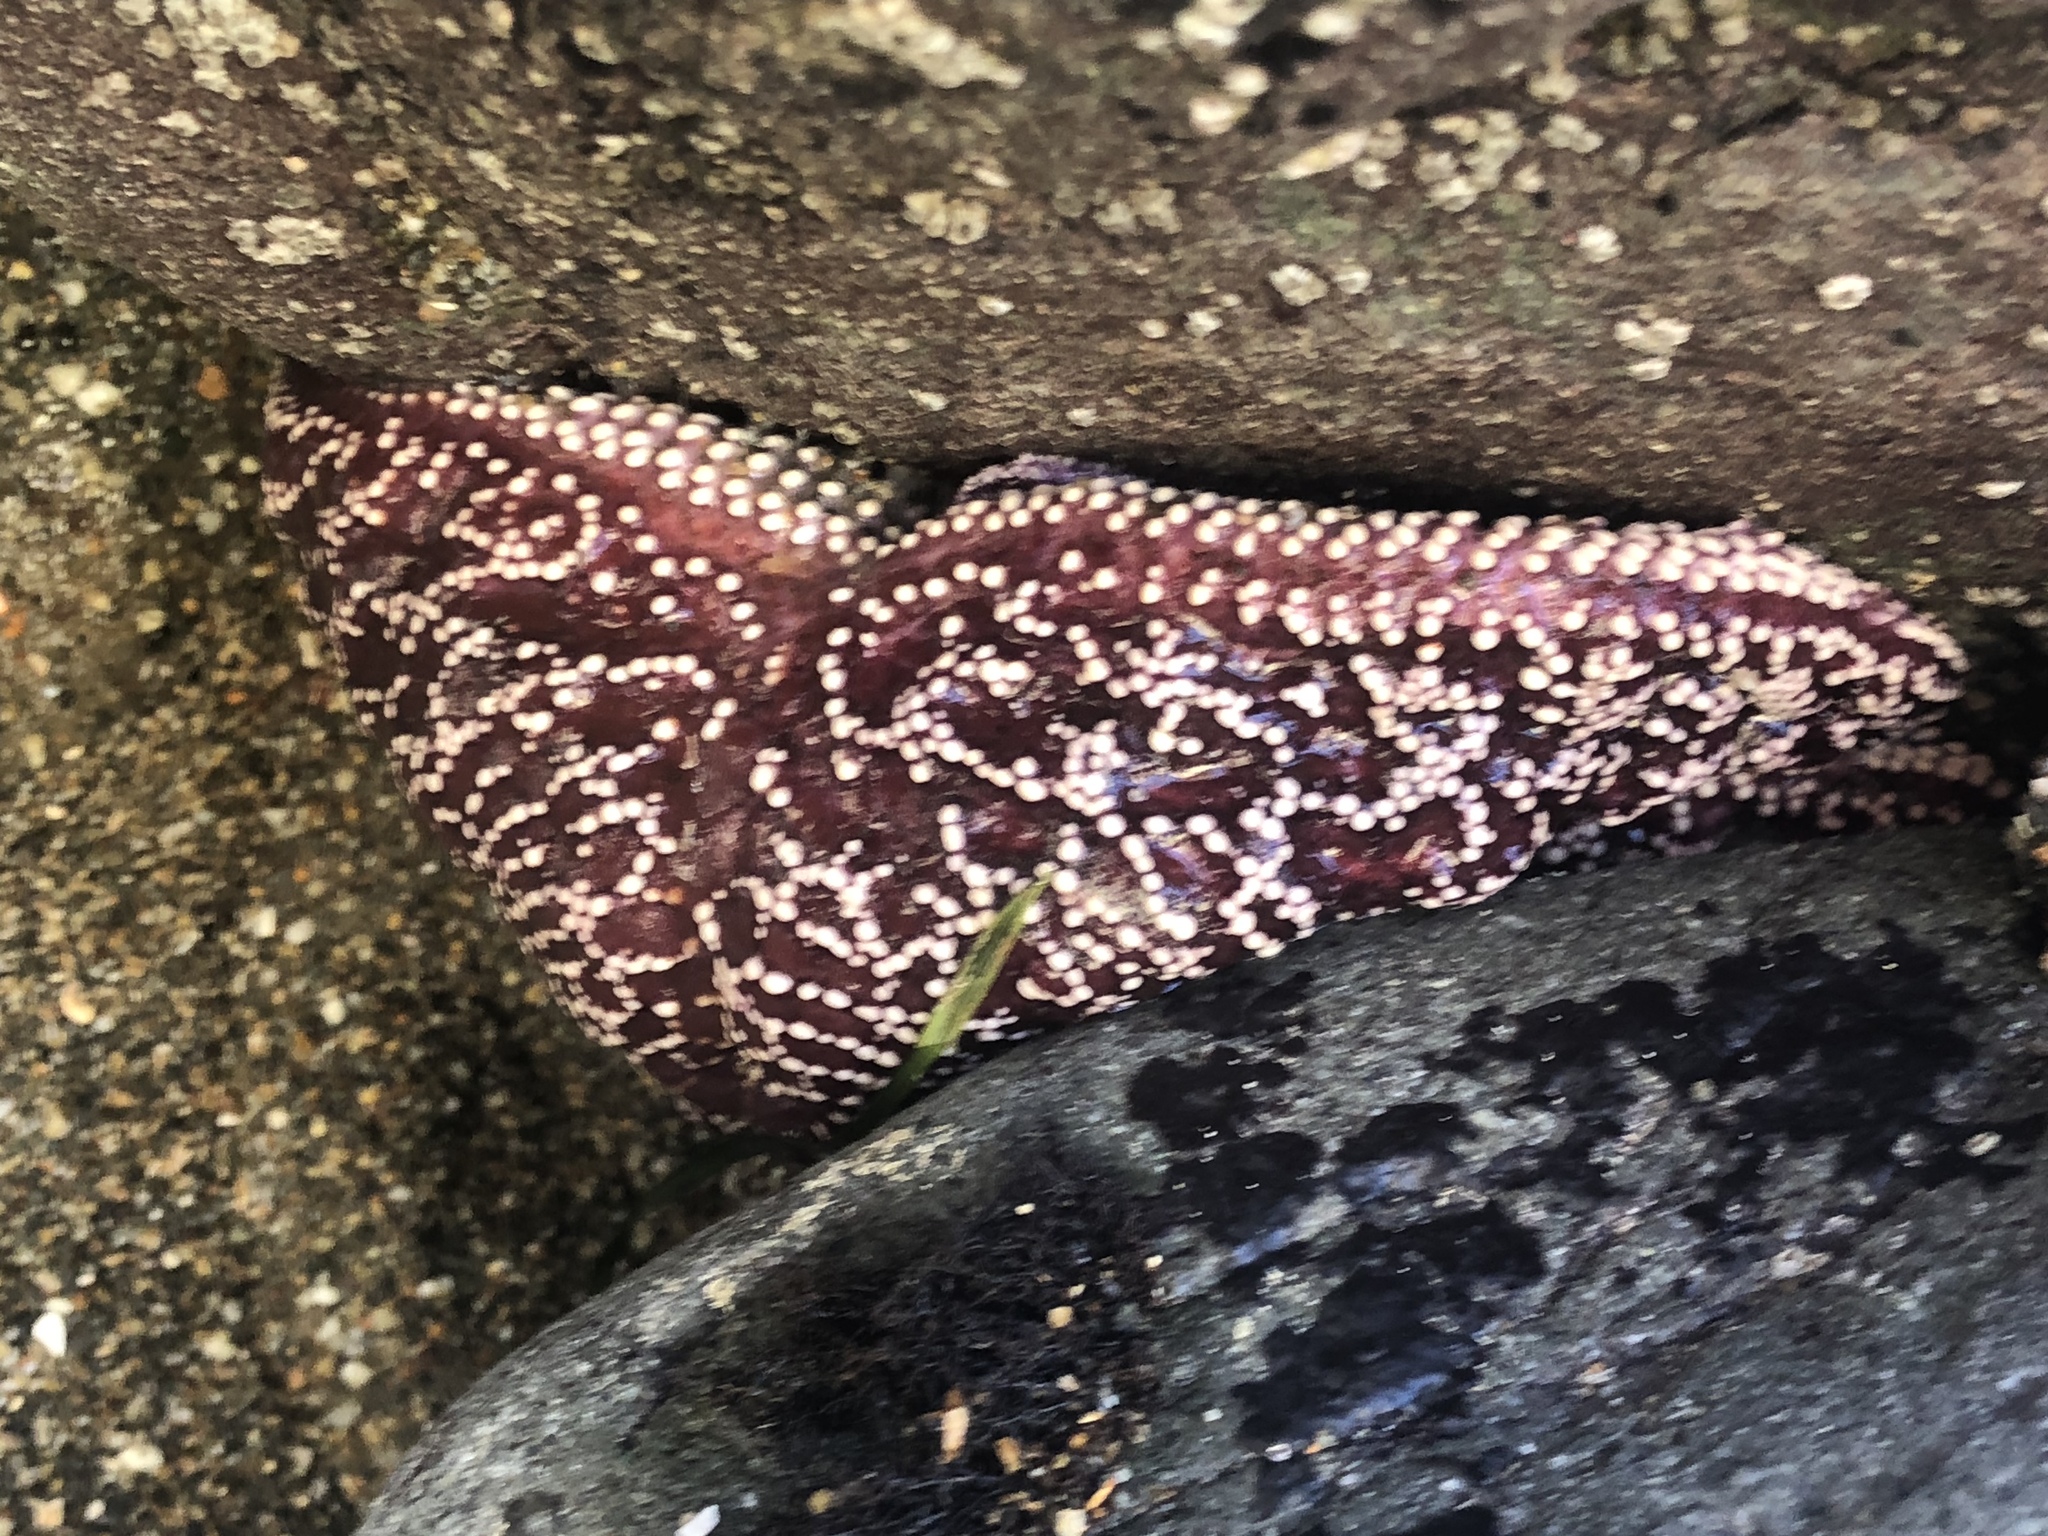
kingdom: Animalia
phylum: Echinodermata
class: Asteroidea
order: Forcipulatida
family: Asteriidae
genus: Pisaster
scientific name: Pisaster ochraceus
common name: Ochre stars
